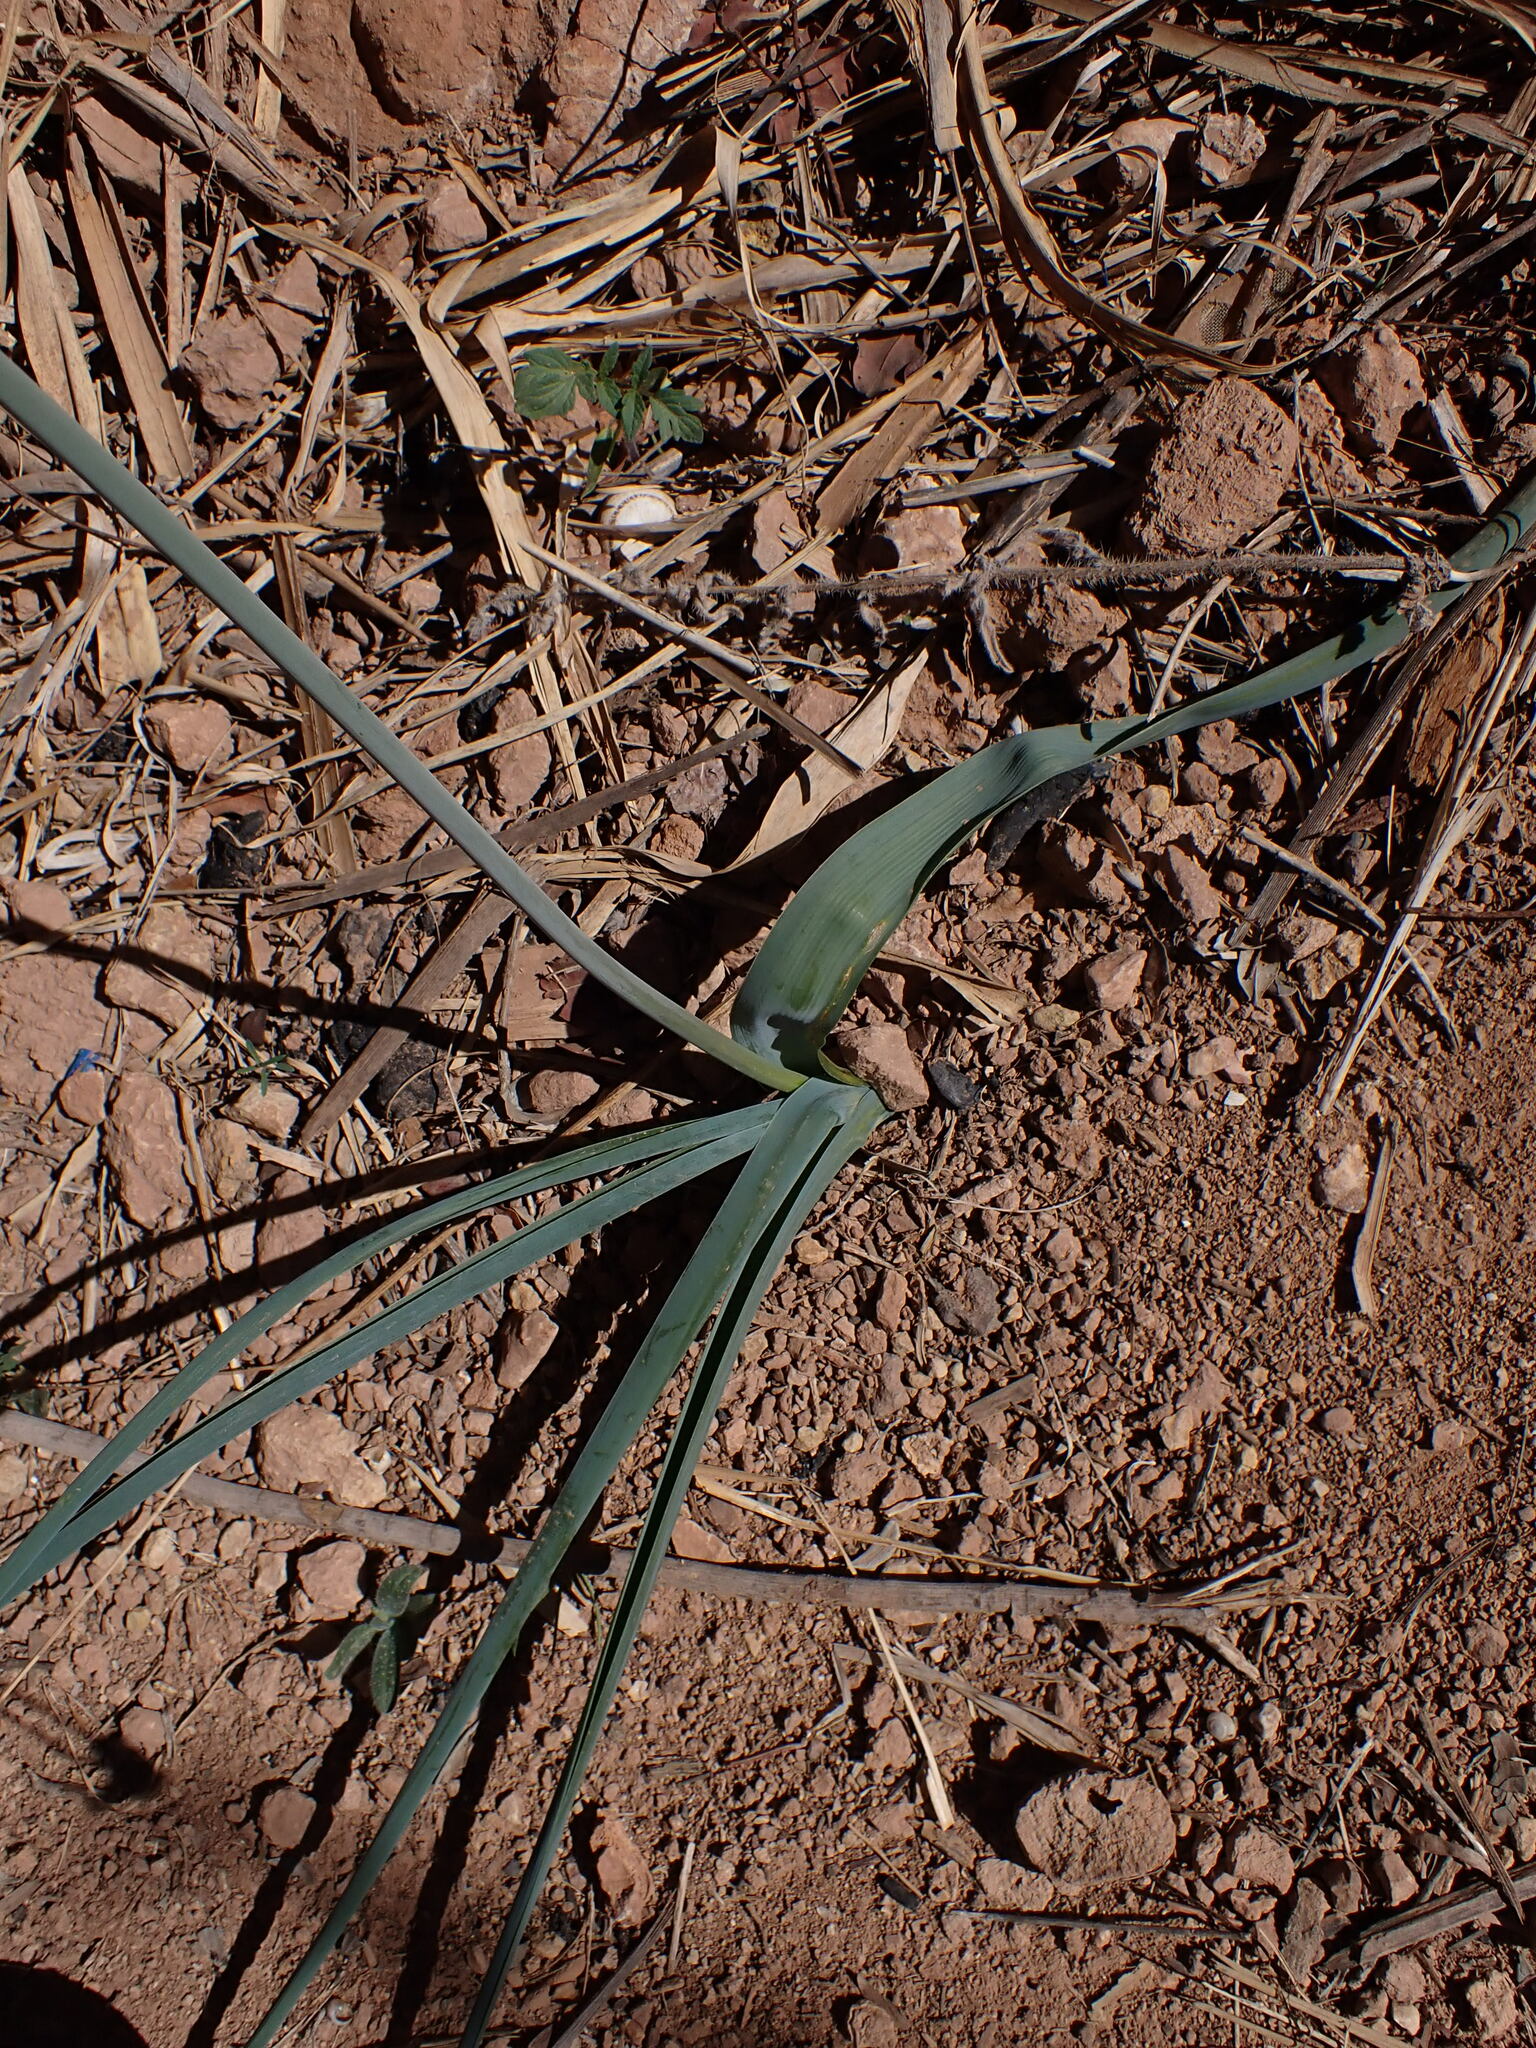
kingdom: Plantae
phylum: Tracheophyta
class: Liliopsida
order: Asparagales
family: Asparagaceae
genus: Dipcadi
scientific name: Dipcadi serotinum
